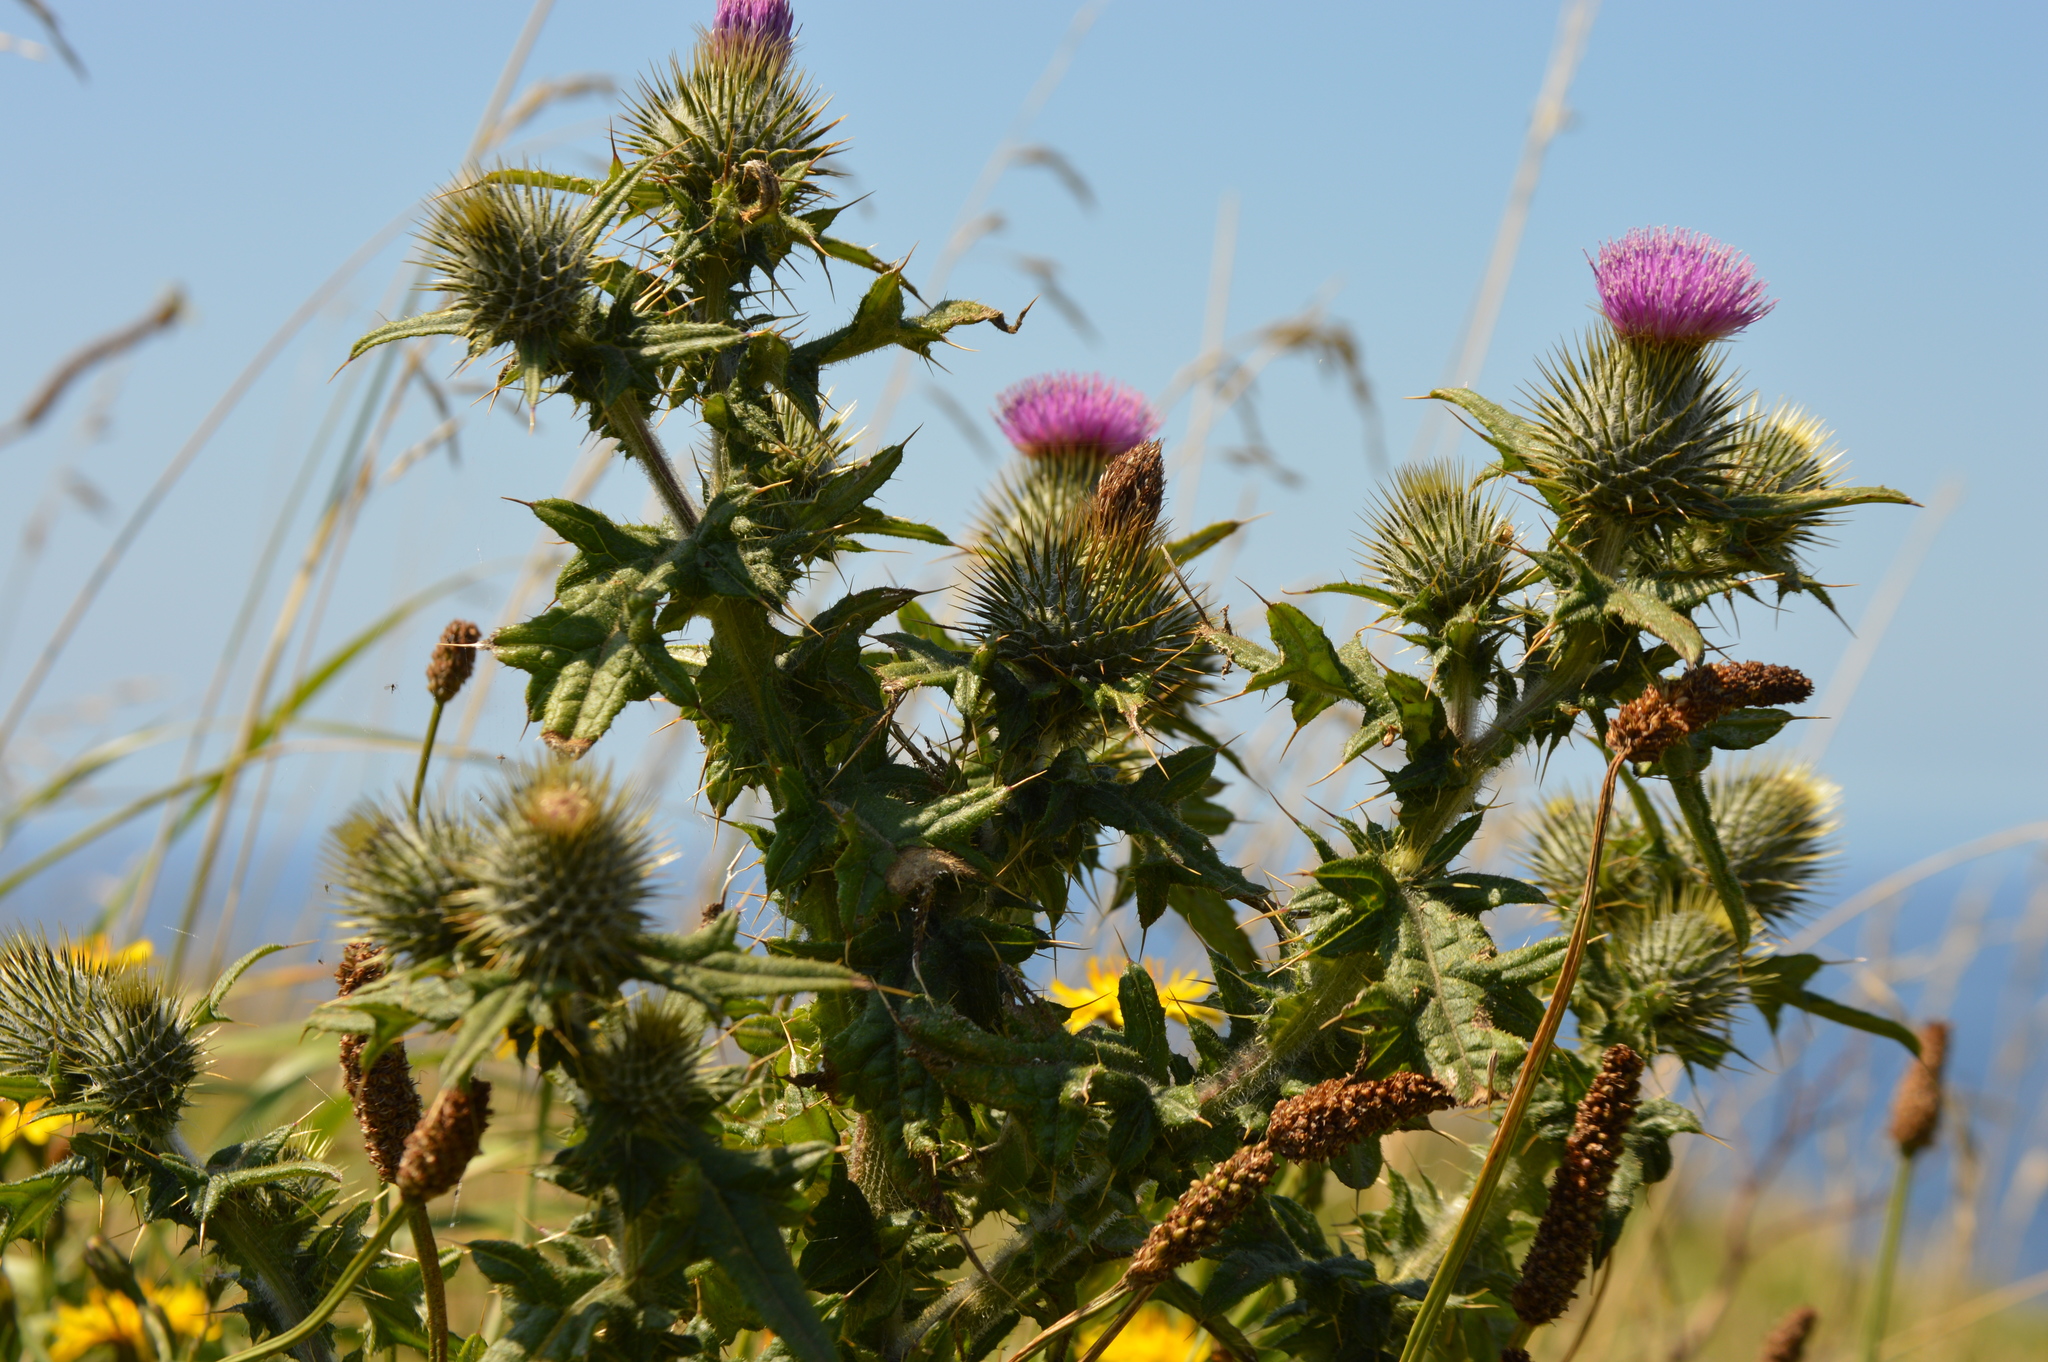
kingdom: Plantae
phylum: Tracheophyta
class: Magnoliopsida
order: Asterales
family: Asteraceae
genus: Cirsium
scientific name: Cirsium vulgare
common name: Bull thistle
